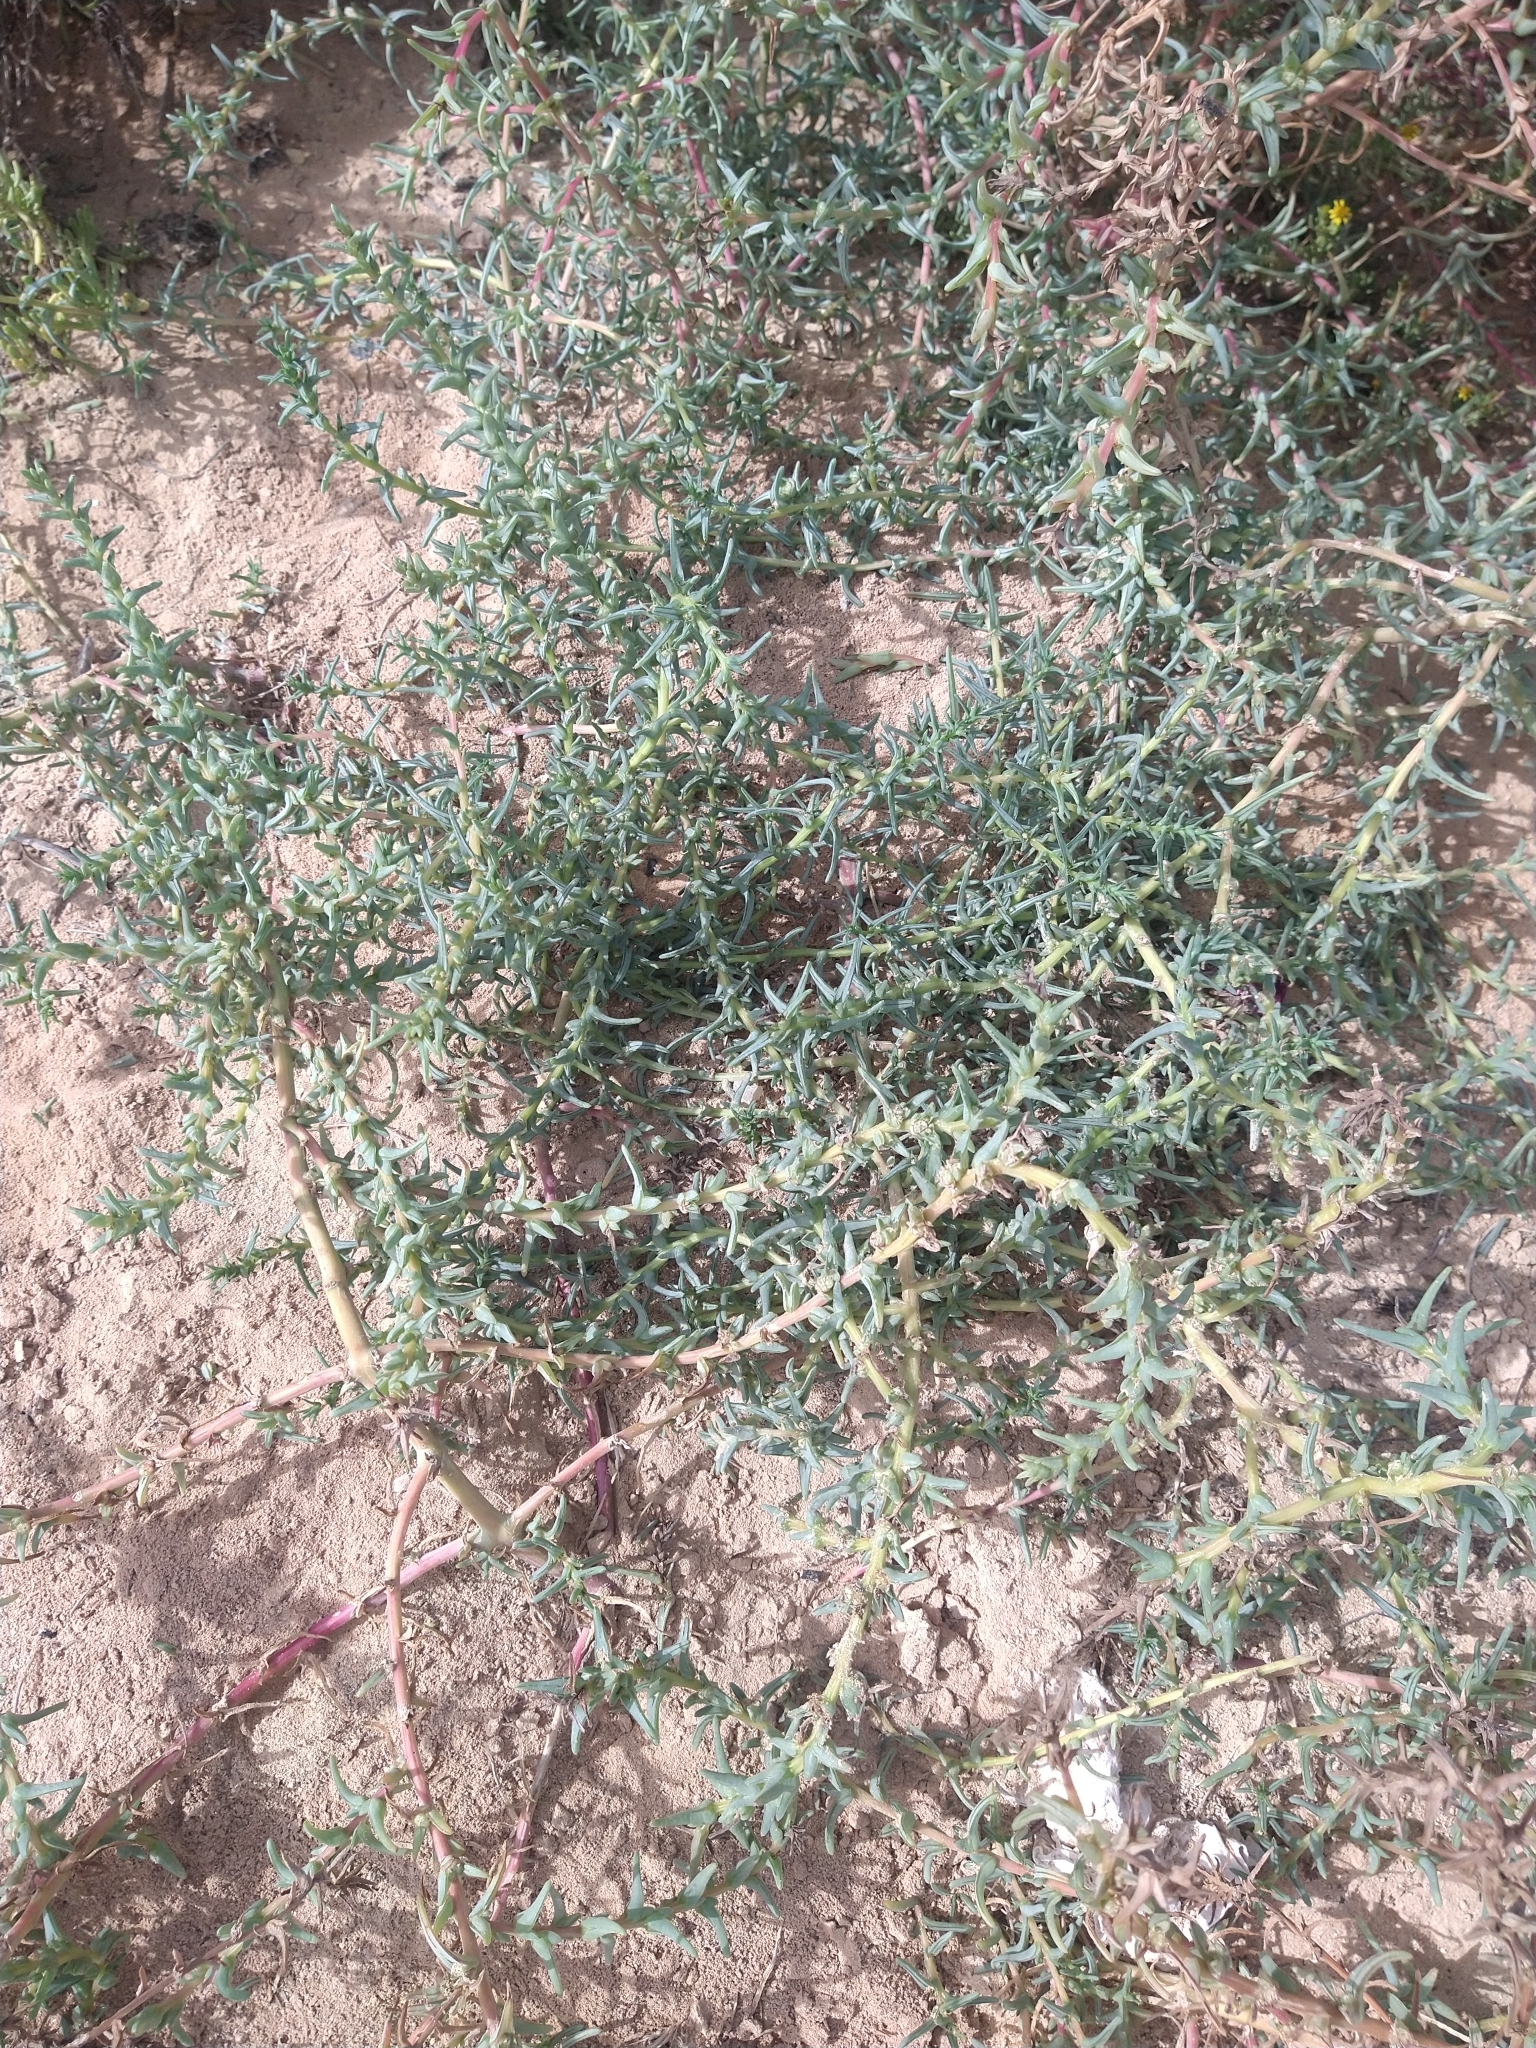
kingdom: Plantae
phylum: Tracheophyta
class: Magnoliopsida
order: Caryophyllales
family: Amaranthaceae
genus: Salsola
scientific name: Salsola soda
